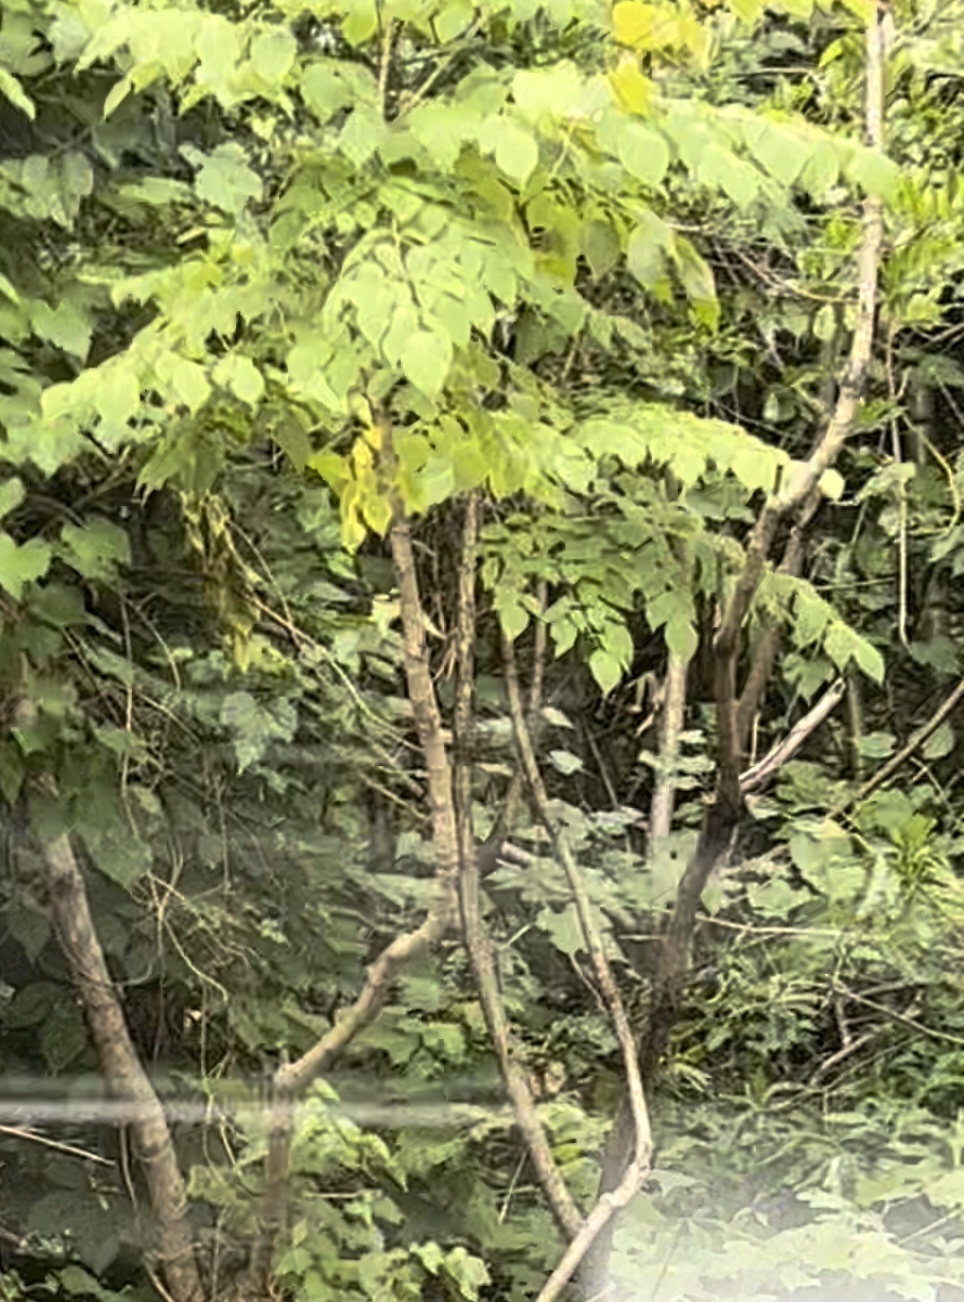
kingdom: Plantae
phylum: Tracheophyta
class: Magnoliopsida
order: Apiales
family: Araliaceae
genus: Aralia
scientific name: Aralia spinosa
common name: Hercules'-club
